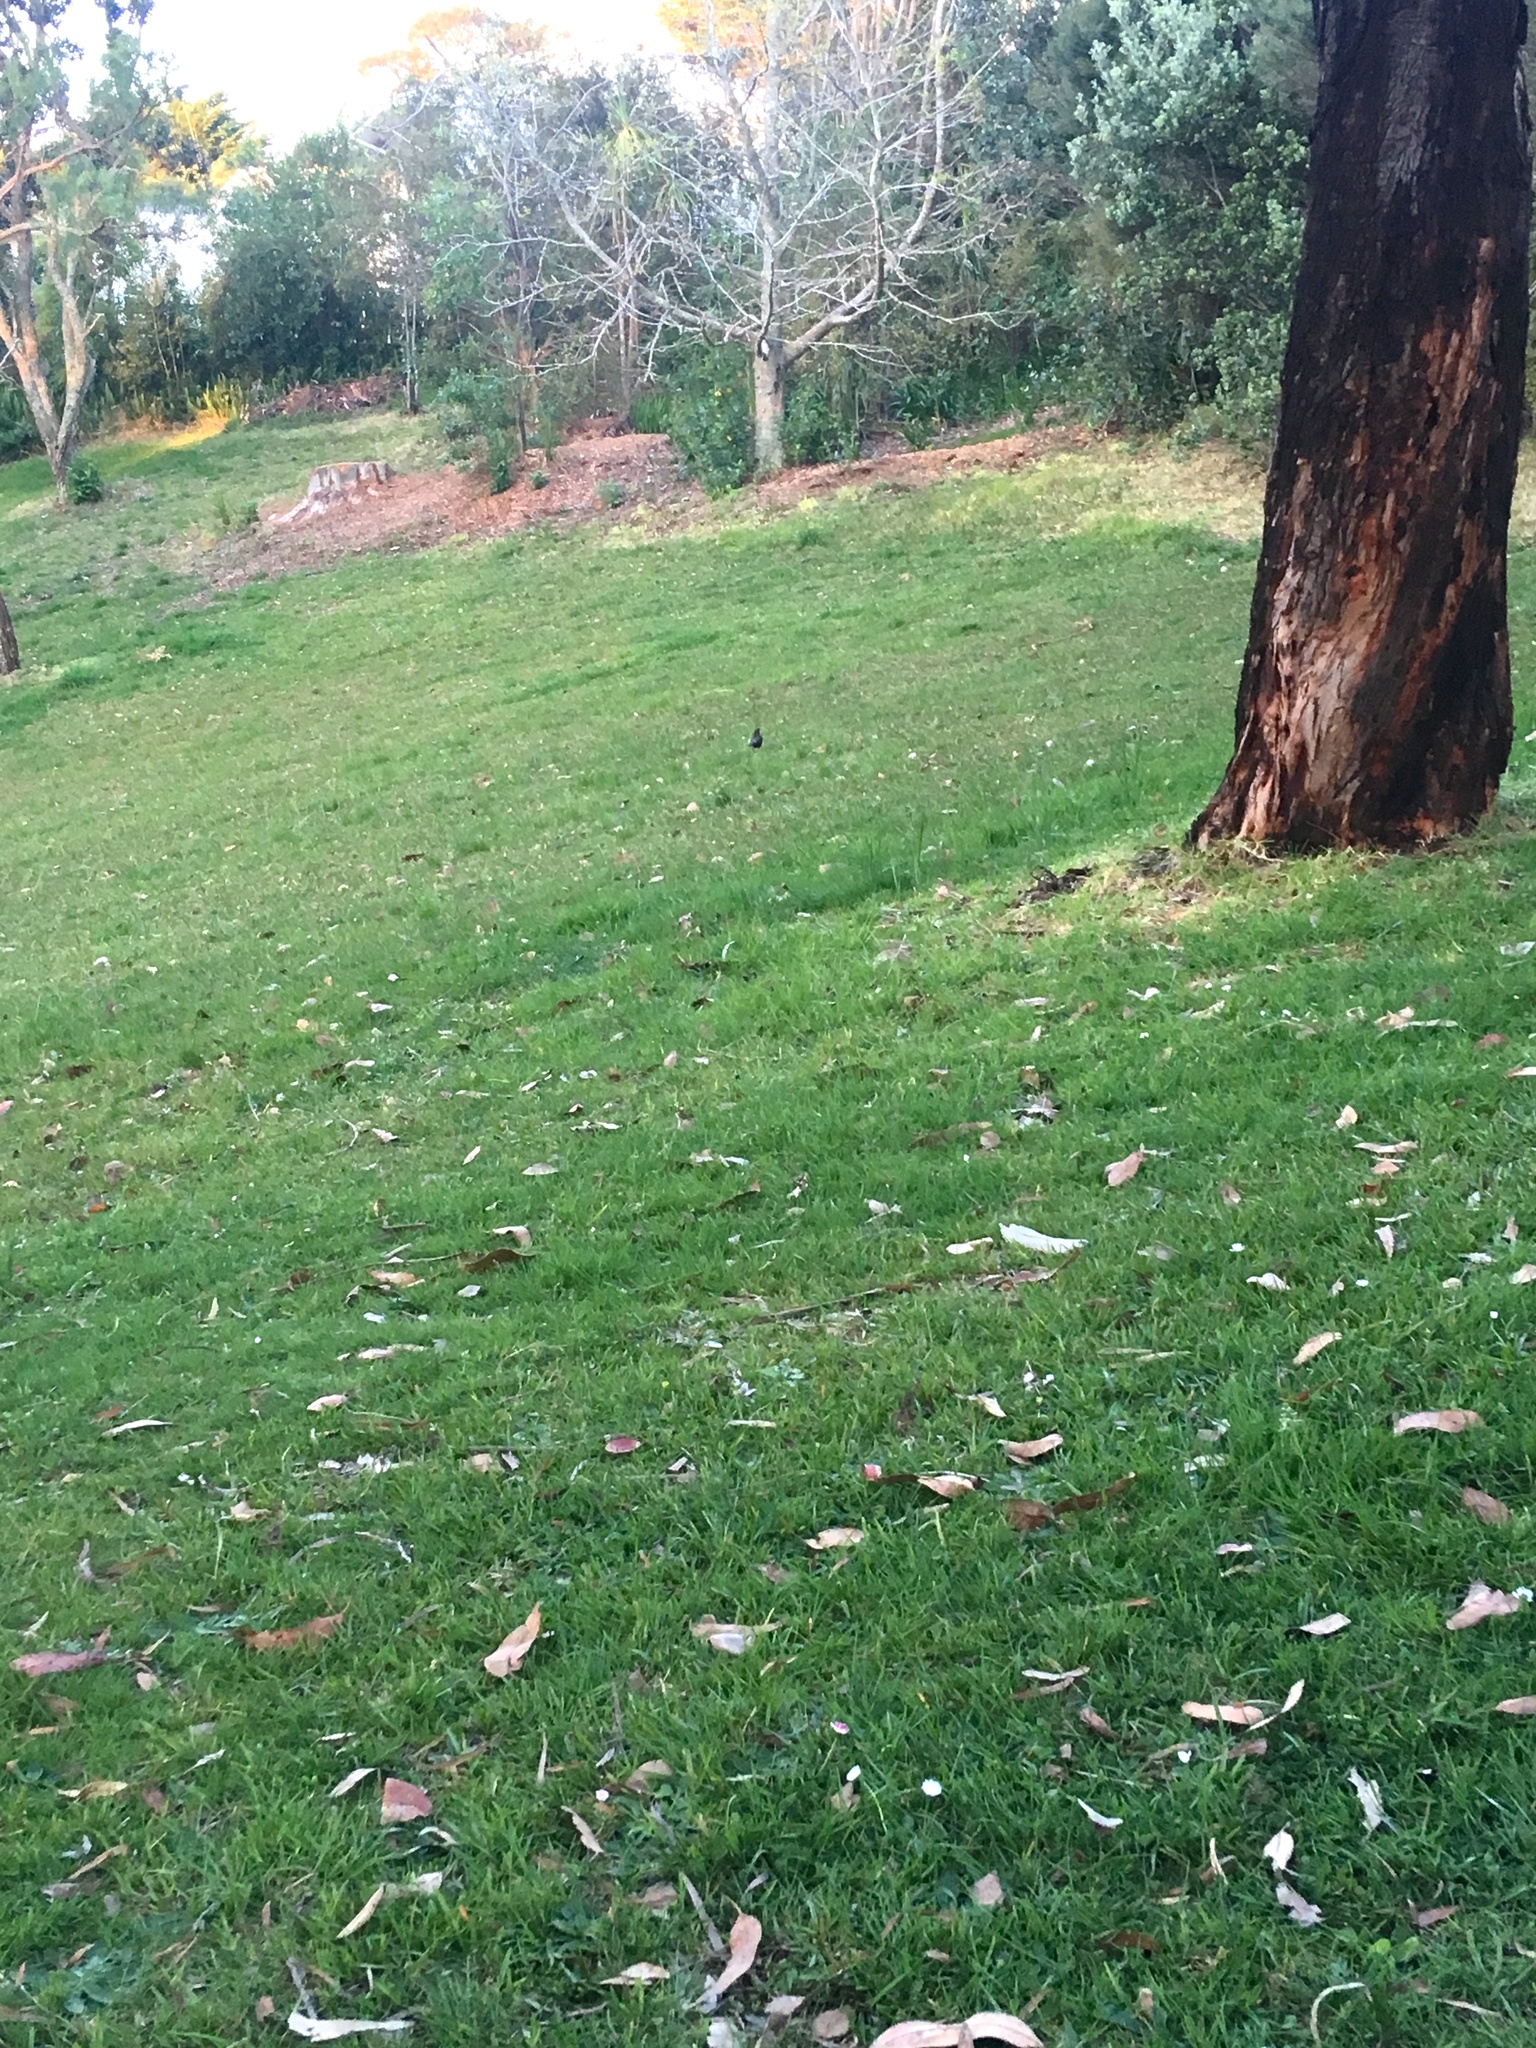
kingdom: Animalia
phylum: Chordata
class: Aves
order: Passeriformes
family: Turdidae
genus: Turdus
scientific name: Turdus merula
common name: Common blackbird
